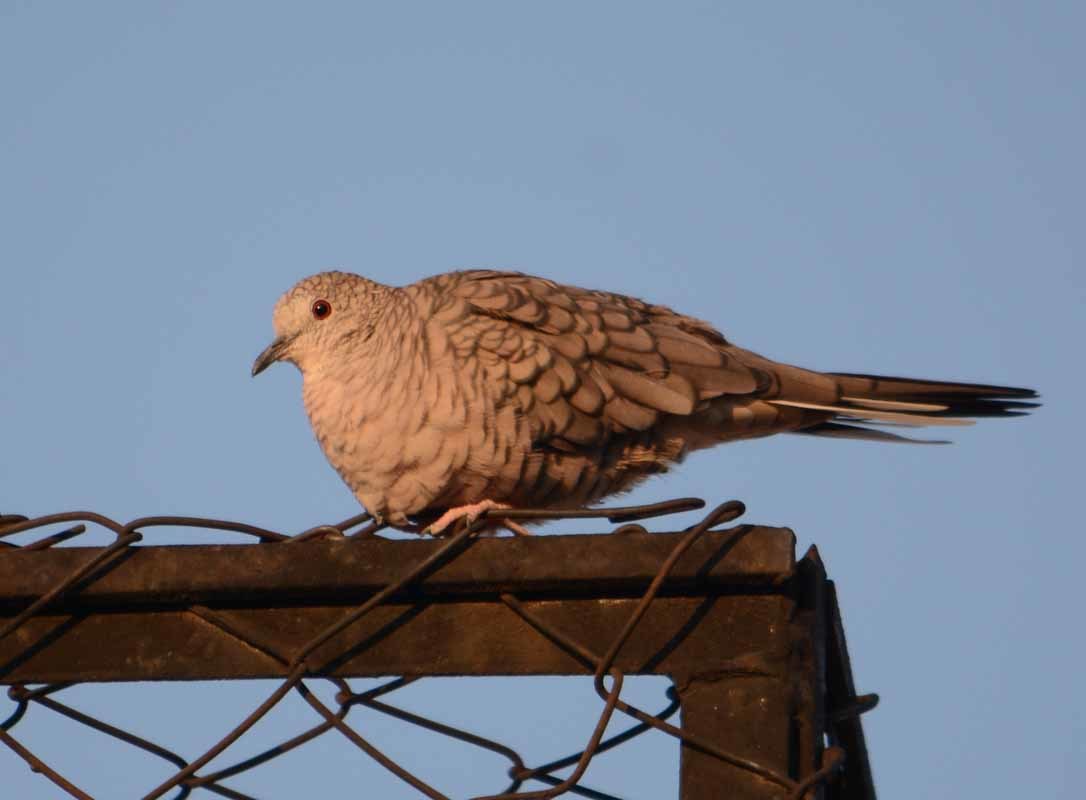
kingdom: Animalia
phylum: Chordata
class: Aves
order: Columbiformes
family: Columbidae
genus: Columbina
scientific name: Columbina inca
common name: Inca dove
